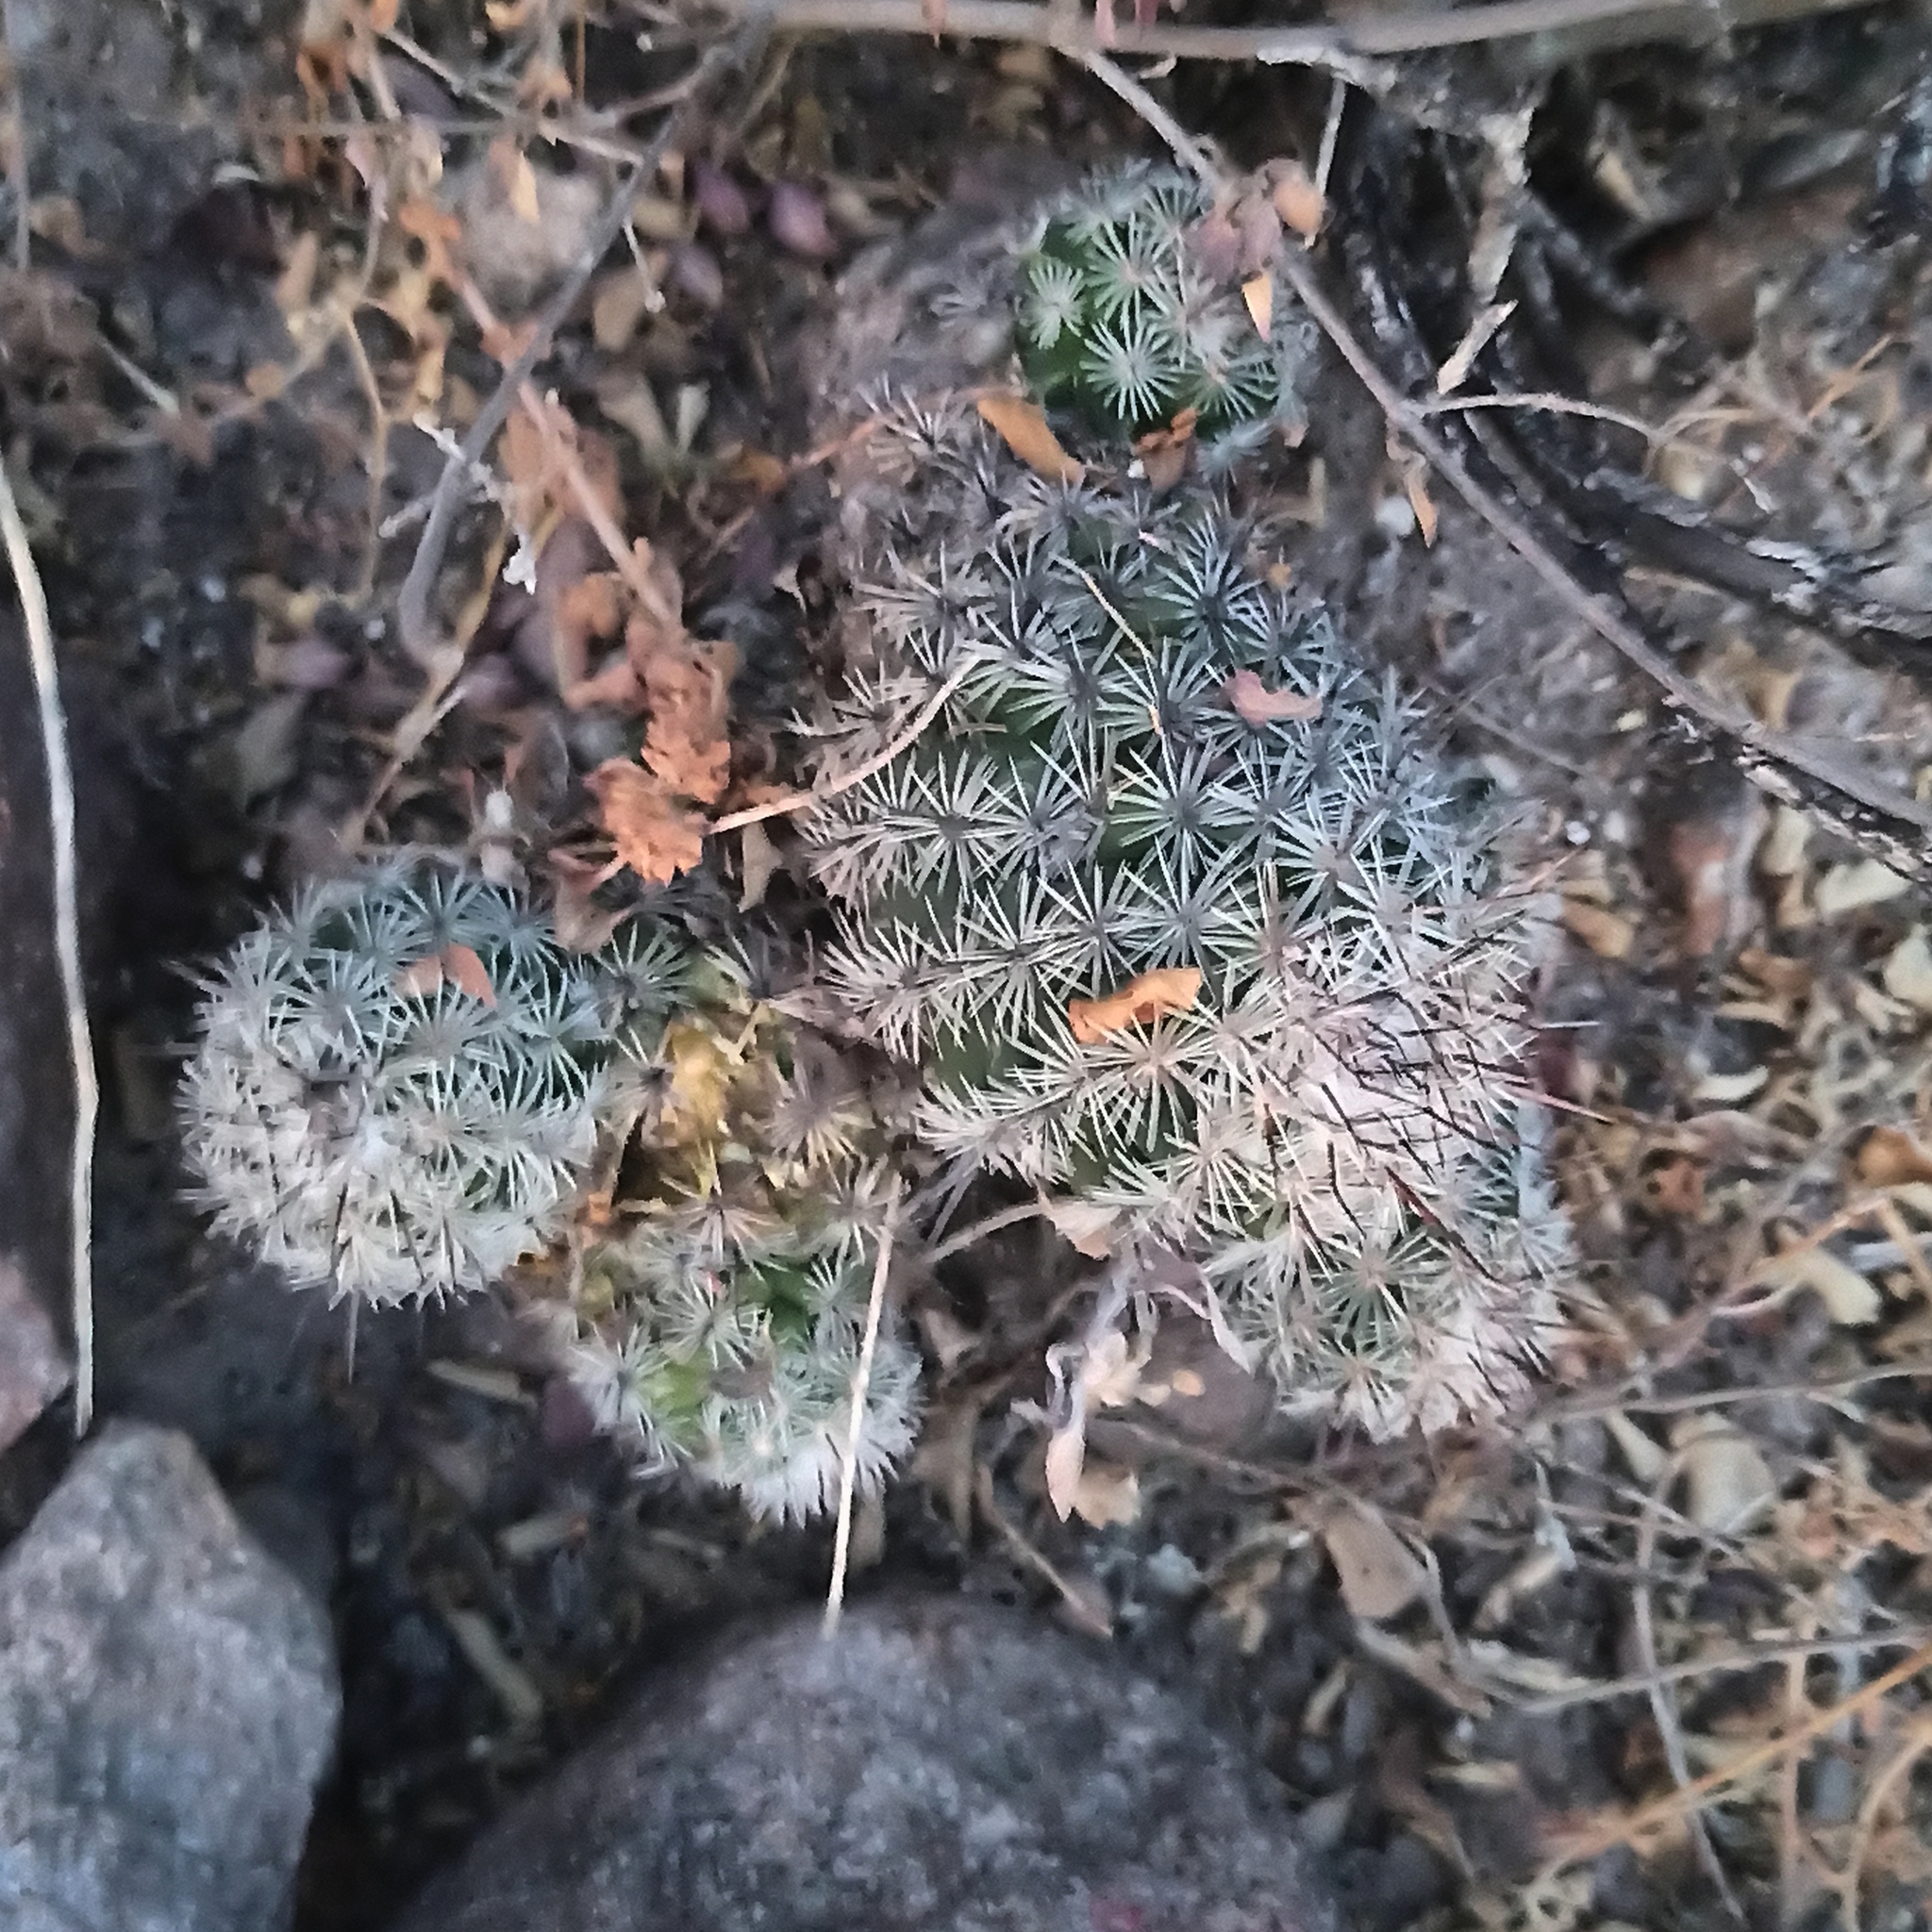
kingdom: Plantae
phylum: Tracheophyta
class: Magnoliopsida
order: Caryophyllales
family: Cactaceae
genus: Cochemiea
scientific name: Cochemiea conoidea
